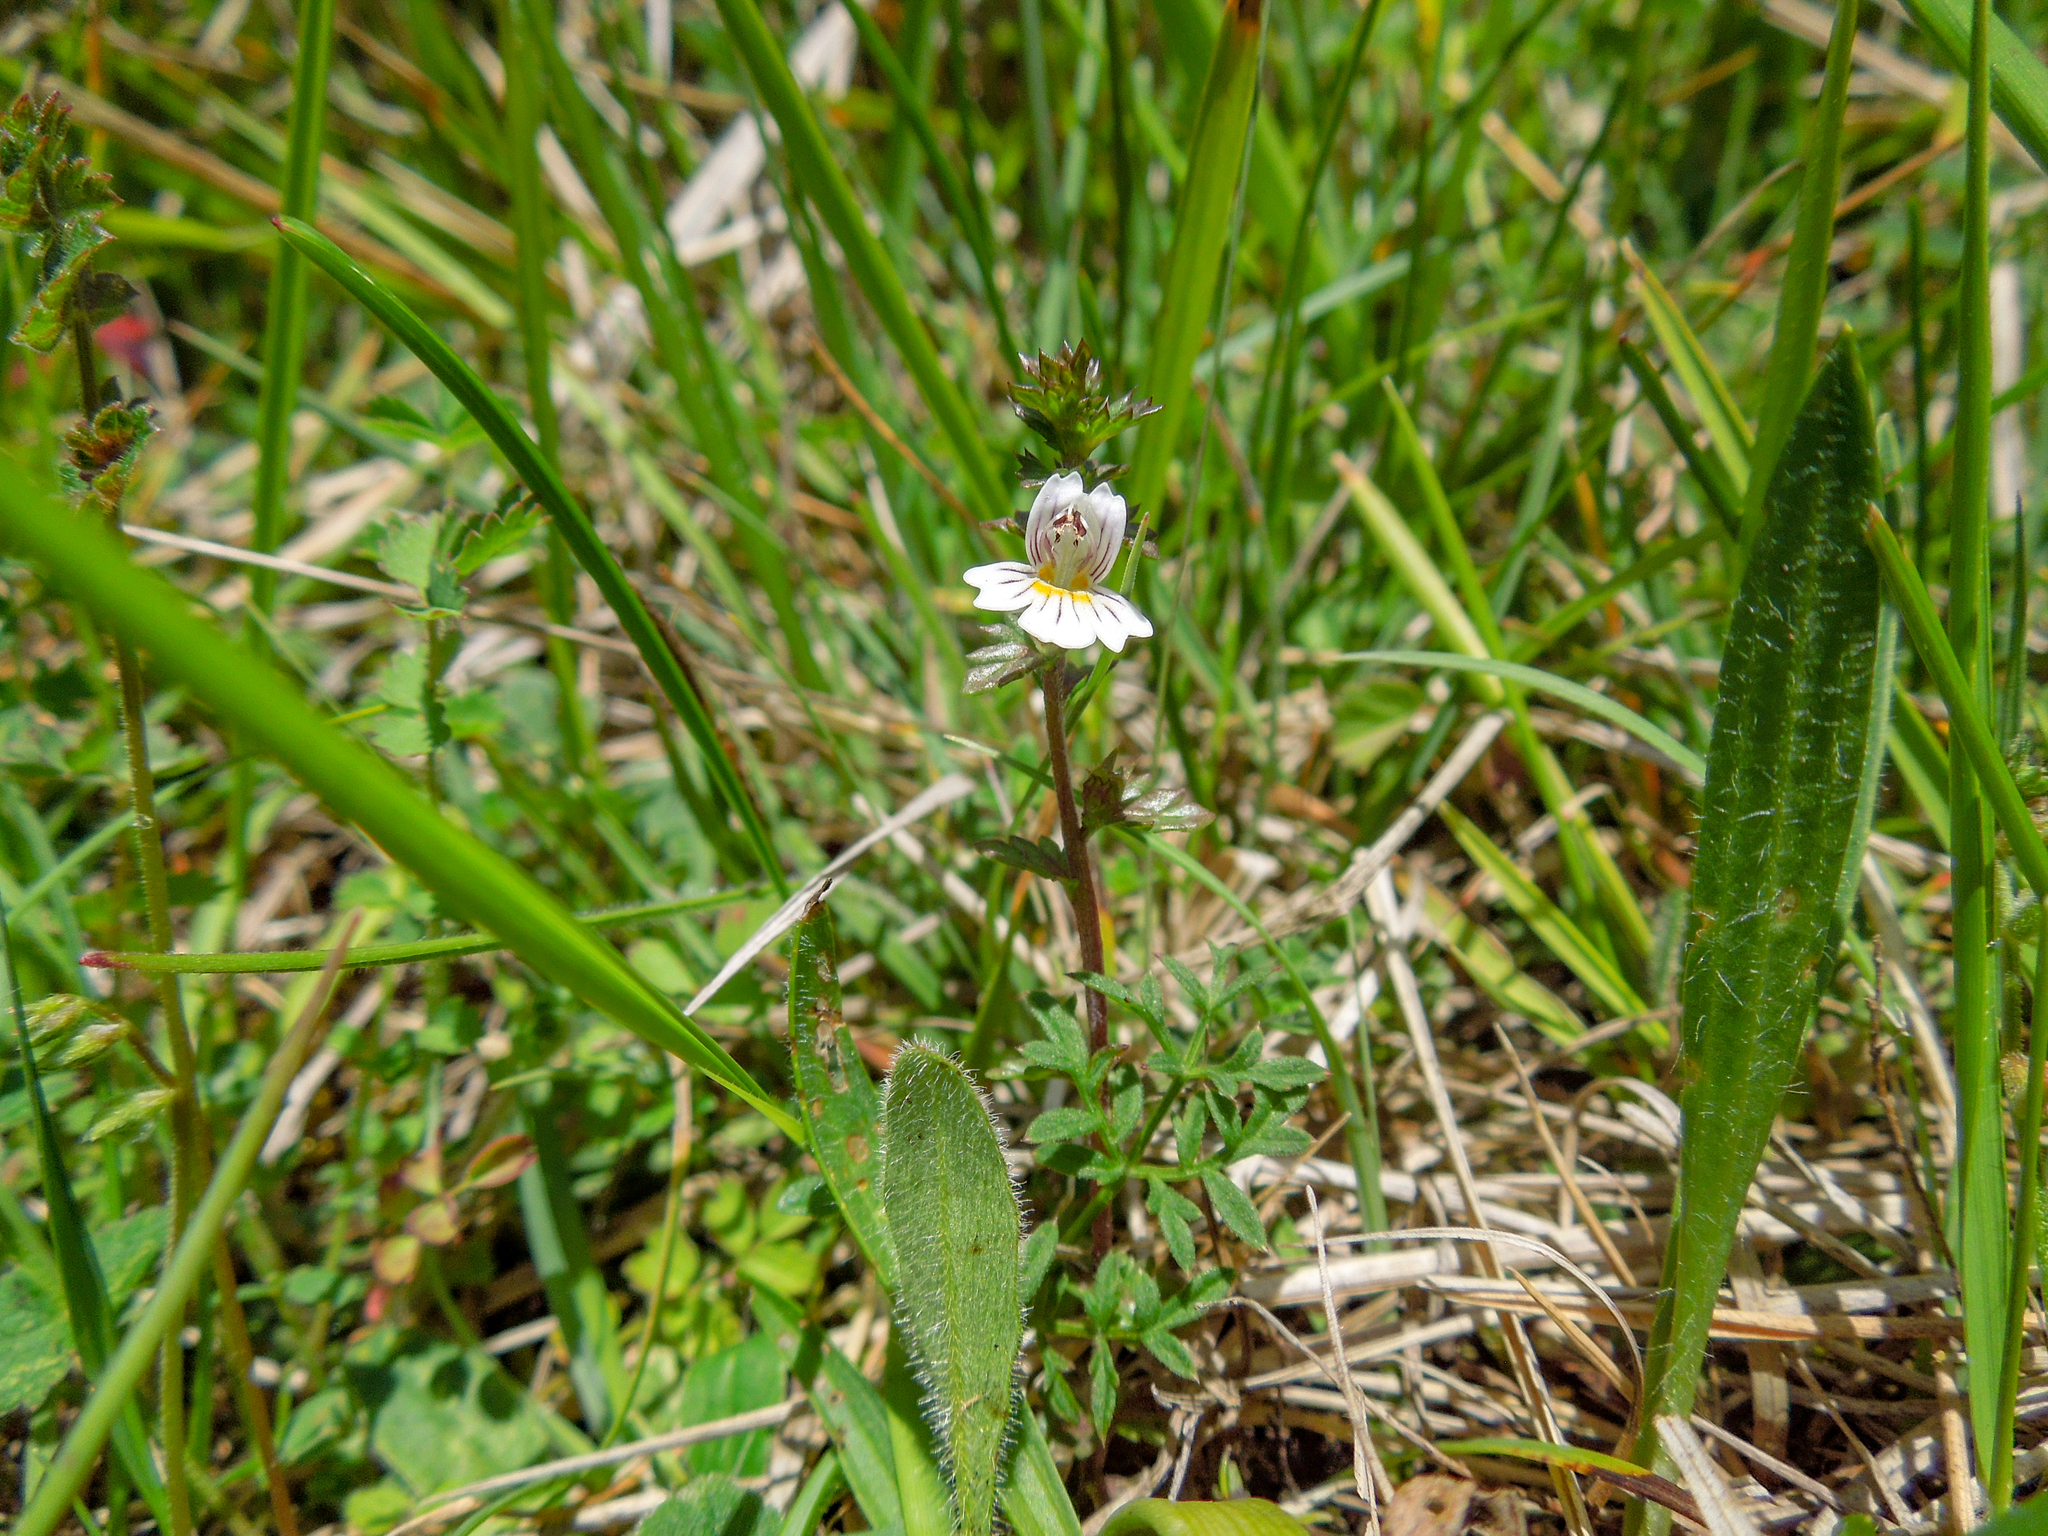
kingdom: Plantae
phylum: Tracheophyta
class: Magnoliopsida
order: Lamiales
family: Orobanchaceae
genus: Euphrasia
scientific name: Euphrasia
